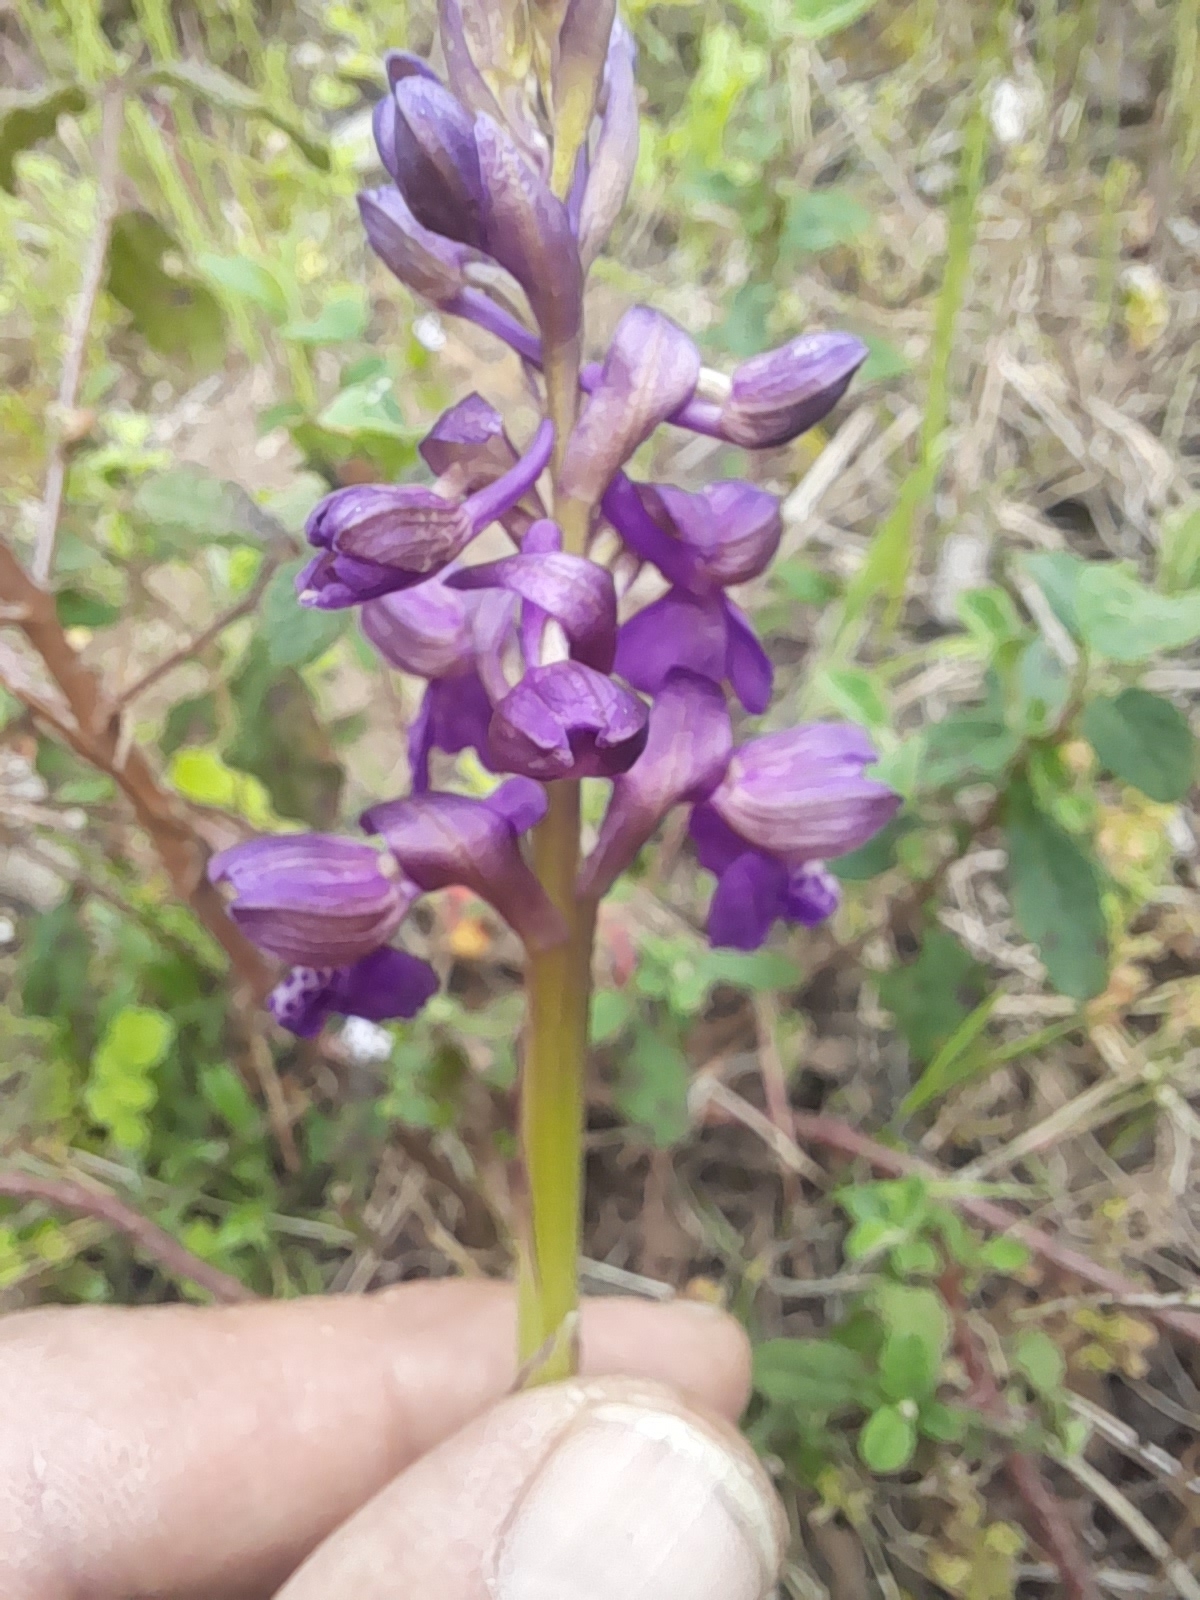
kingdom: Plantae
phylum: Tracheophyta
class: Liliopsida
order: Asparagales
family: Orchidaceae
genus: Anacamptis
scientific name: Anacamptis morio
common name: Green-winged orchid
